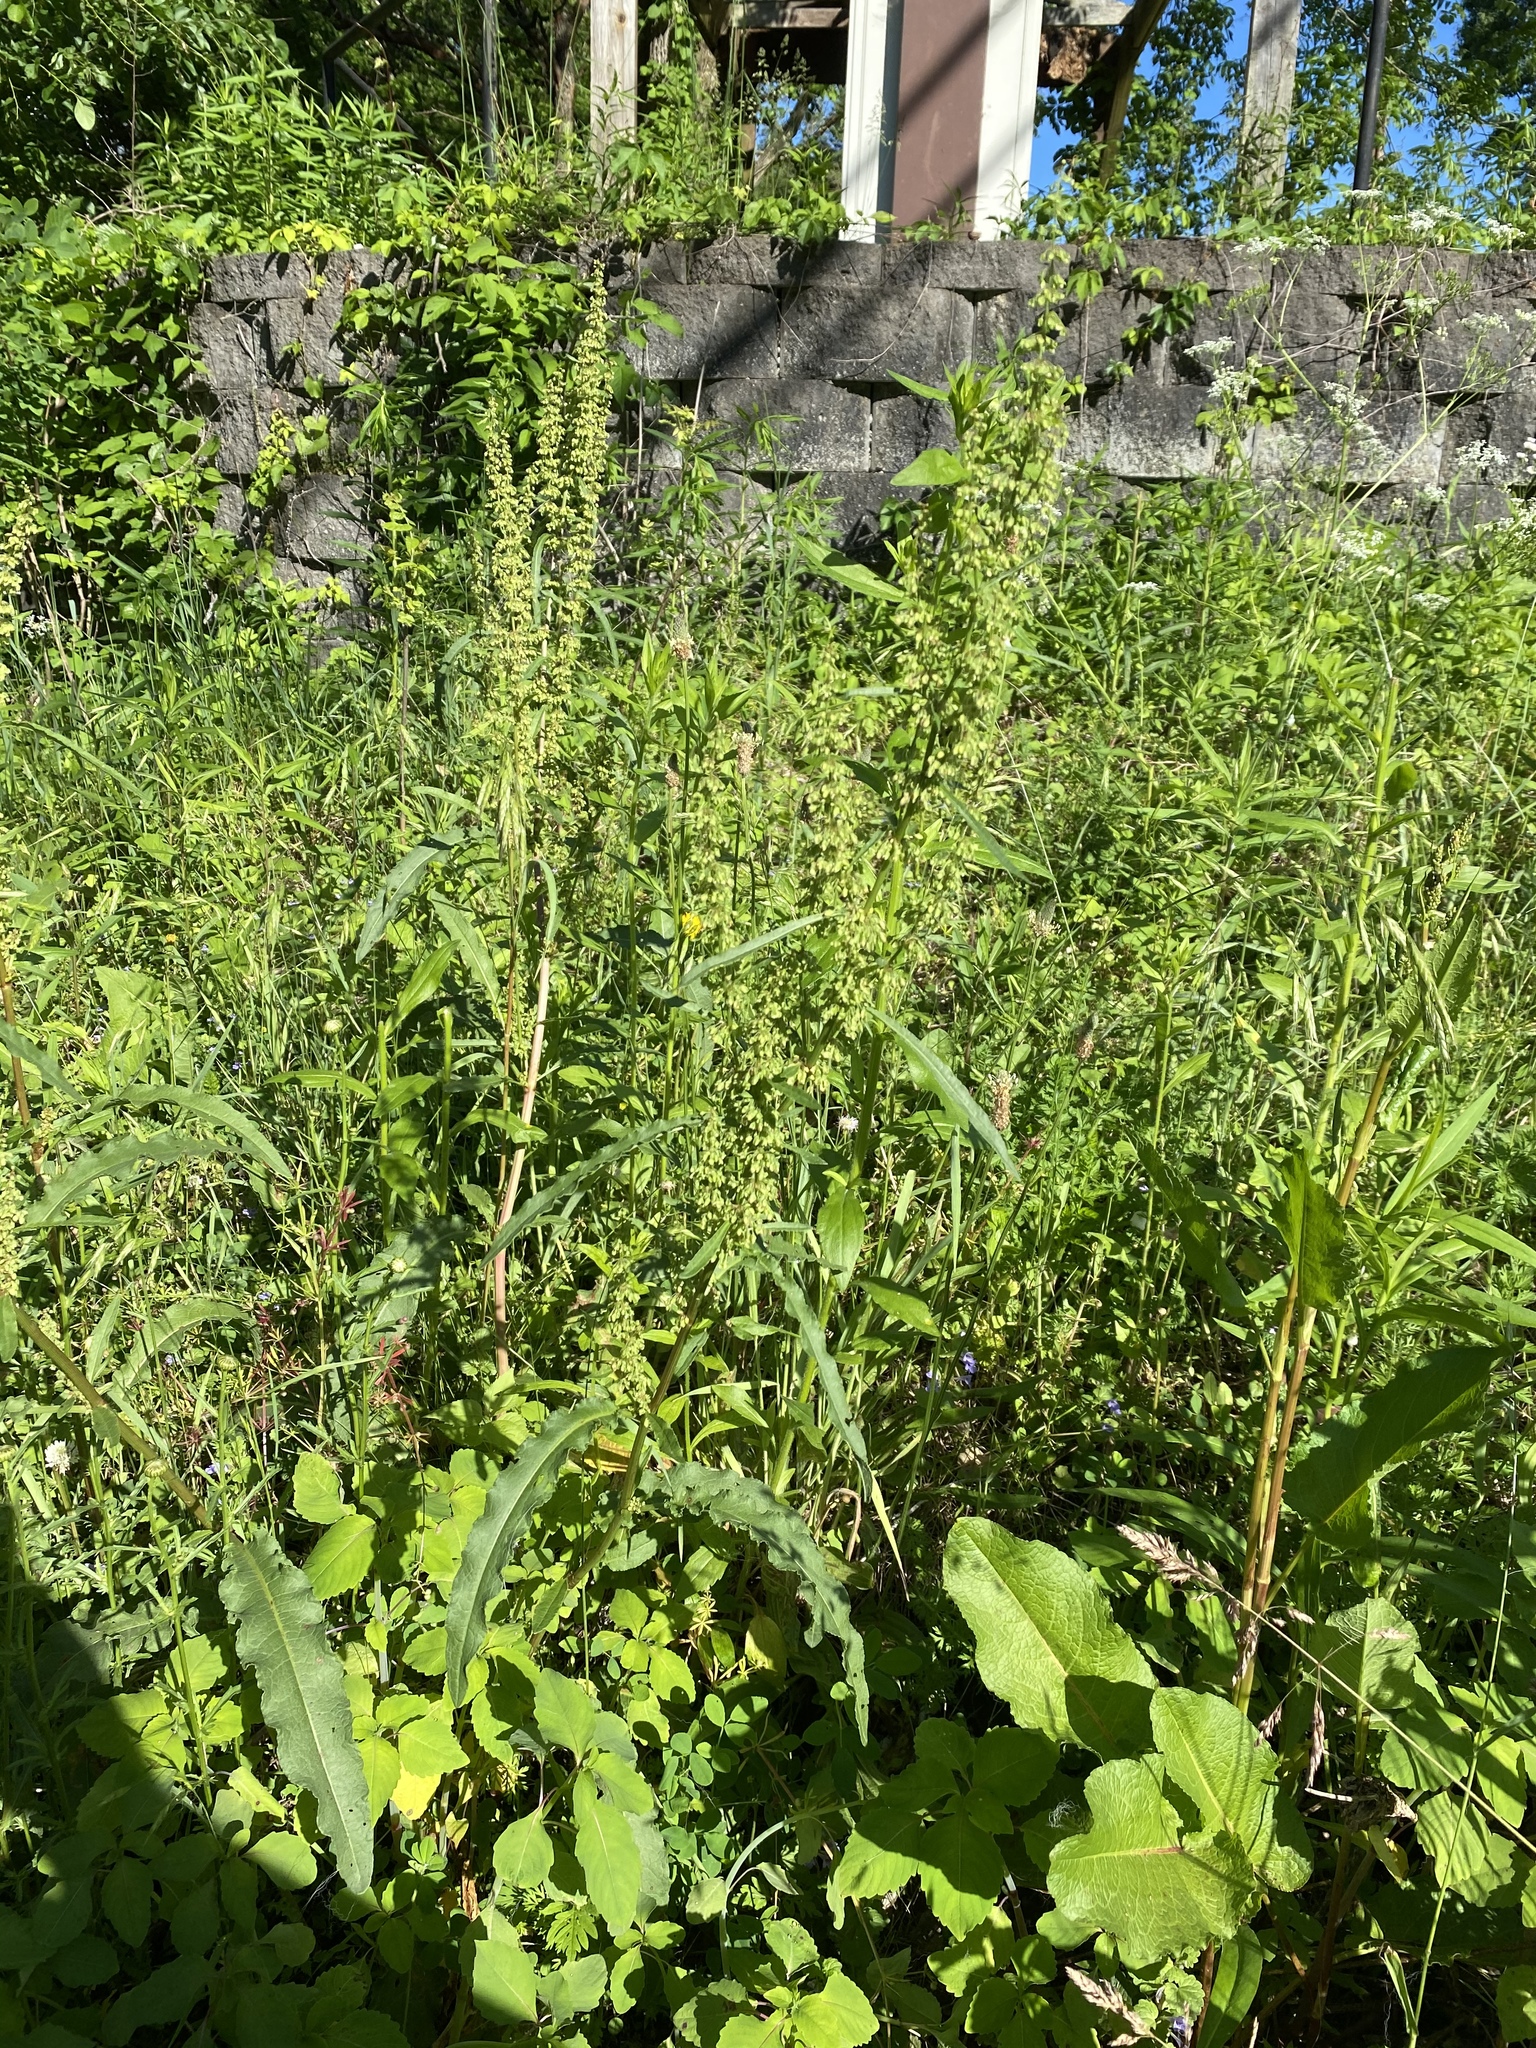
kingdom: Plantae
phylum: Tracheophyta
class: Magnoliopsida
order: Caryophyllales
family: Polygonaceae
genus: Rumex
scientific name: Rumex crispus
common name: Curled dock
